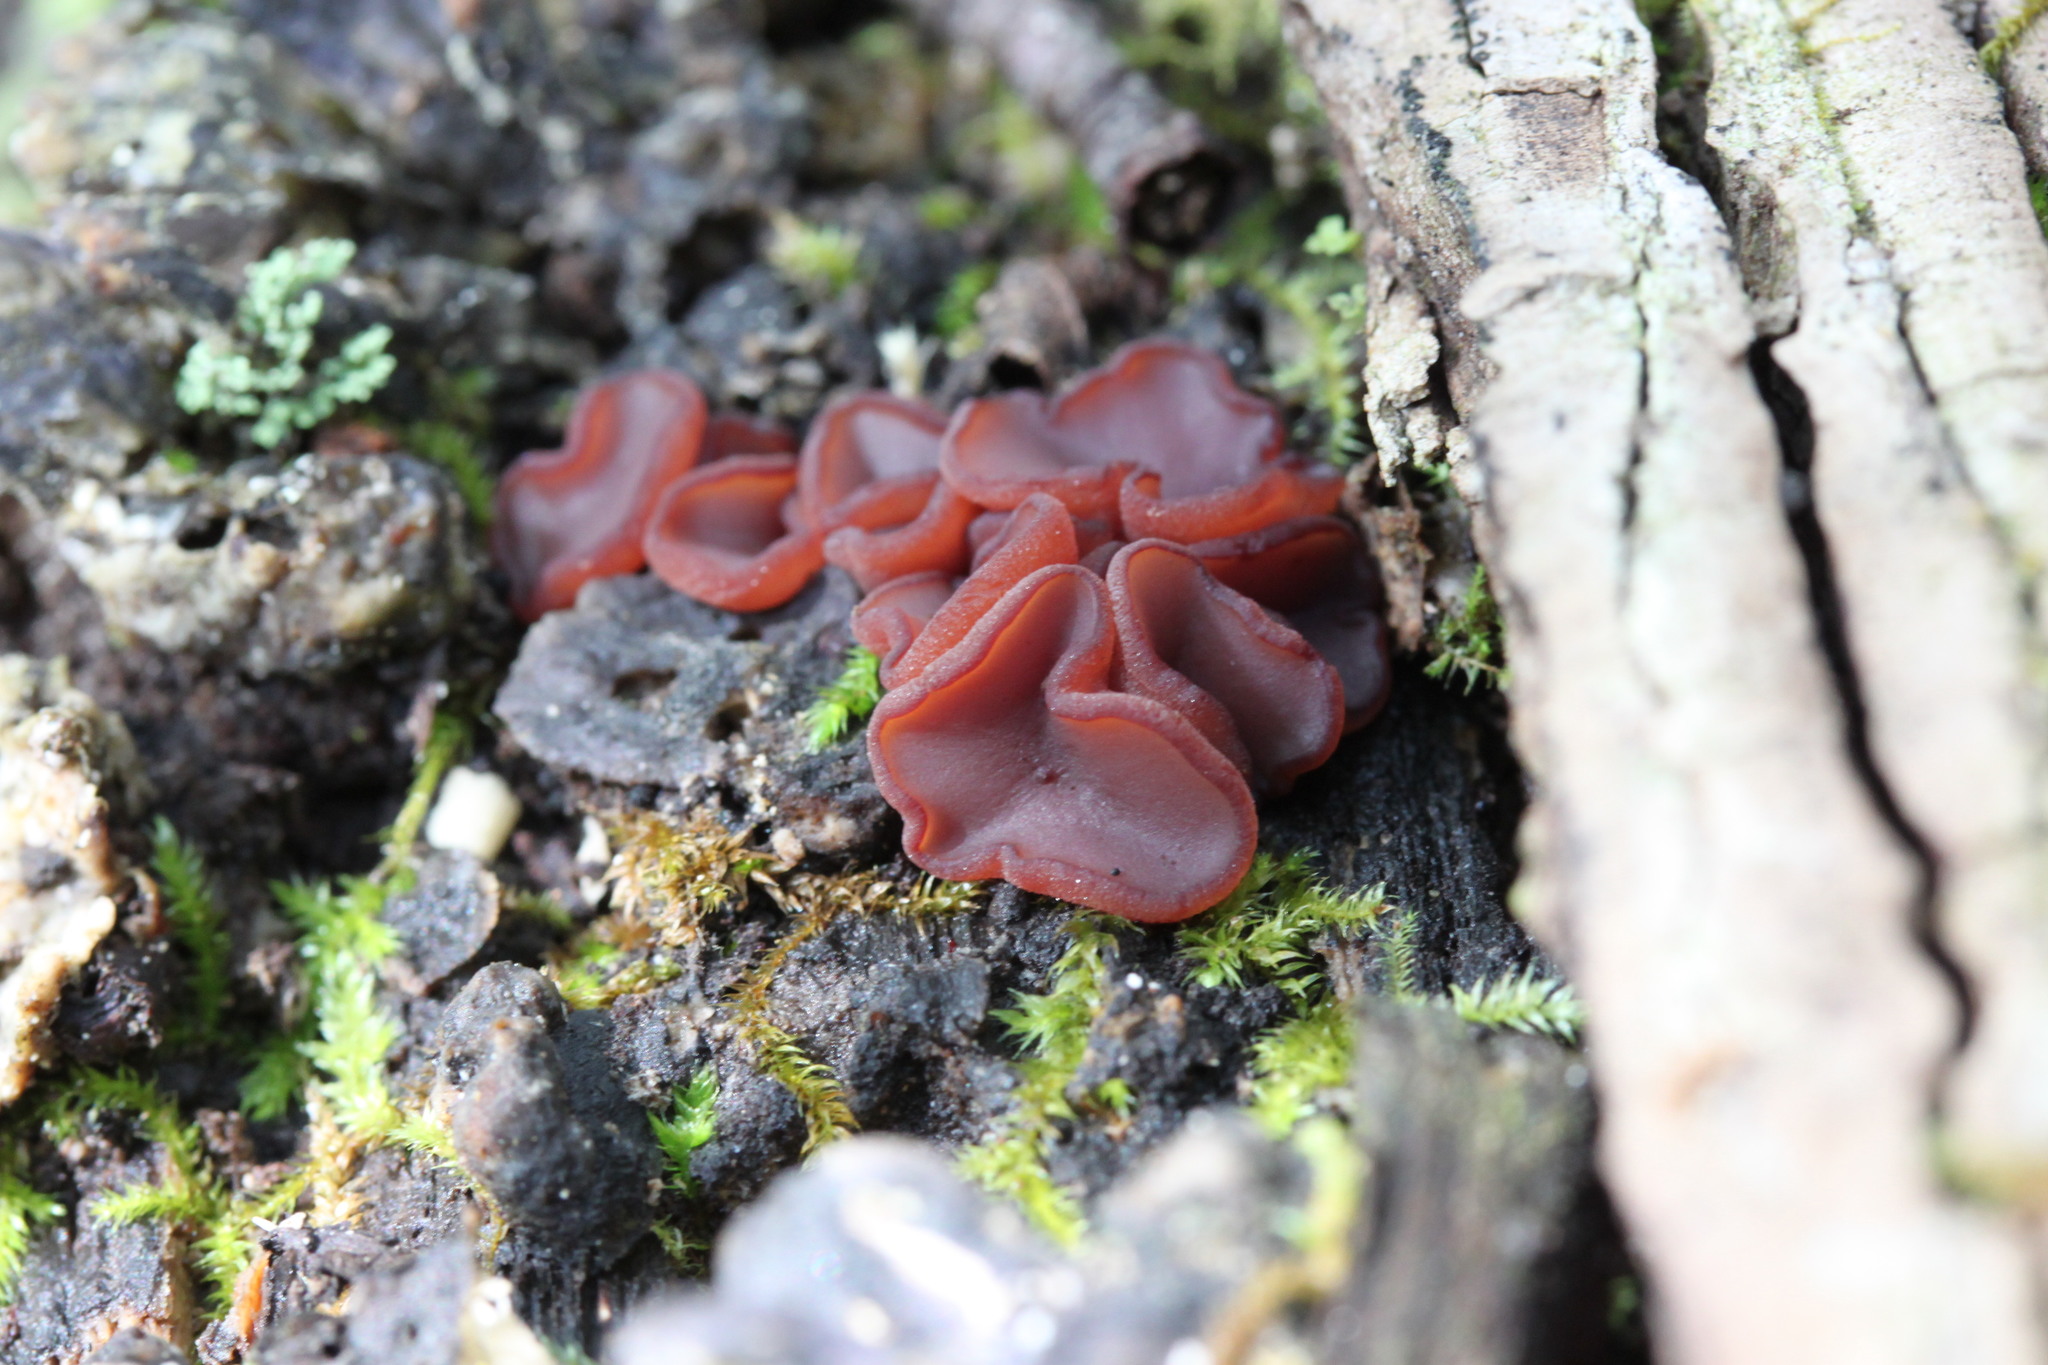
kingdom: Fungi
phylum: Ascomycota
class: Leotiomycetes
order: Helotiales
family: Gelatinodiscaceae
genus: Ascocoryne
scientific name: Ascocoryne sarcoides
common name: Purple jellydisc
